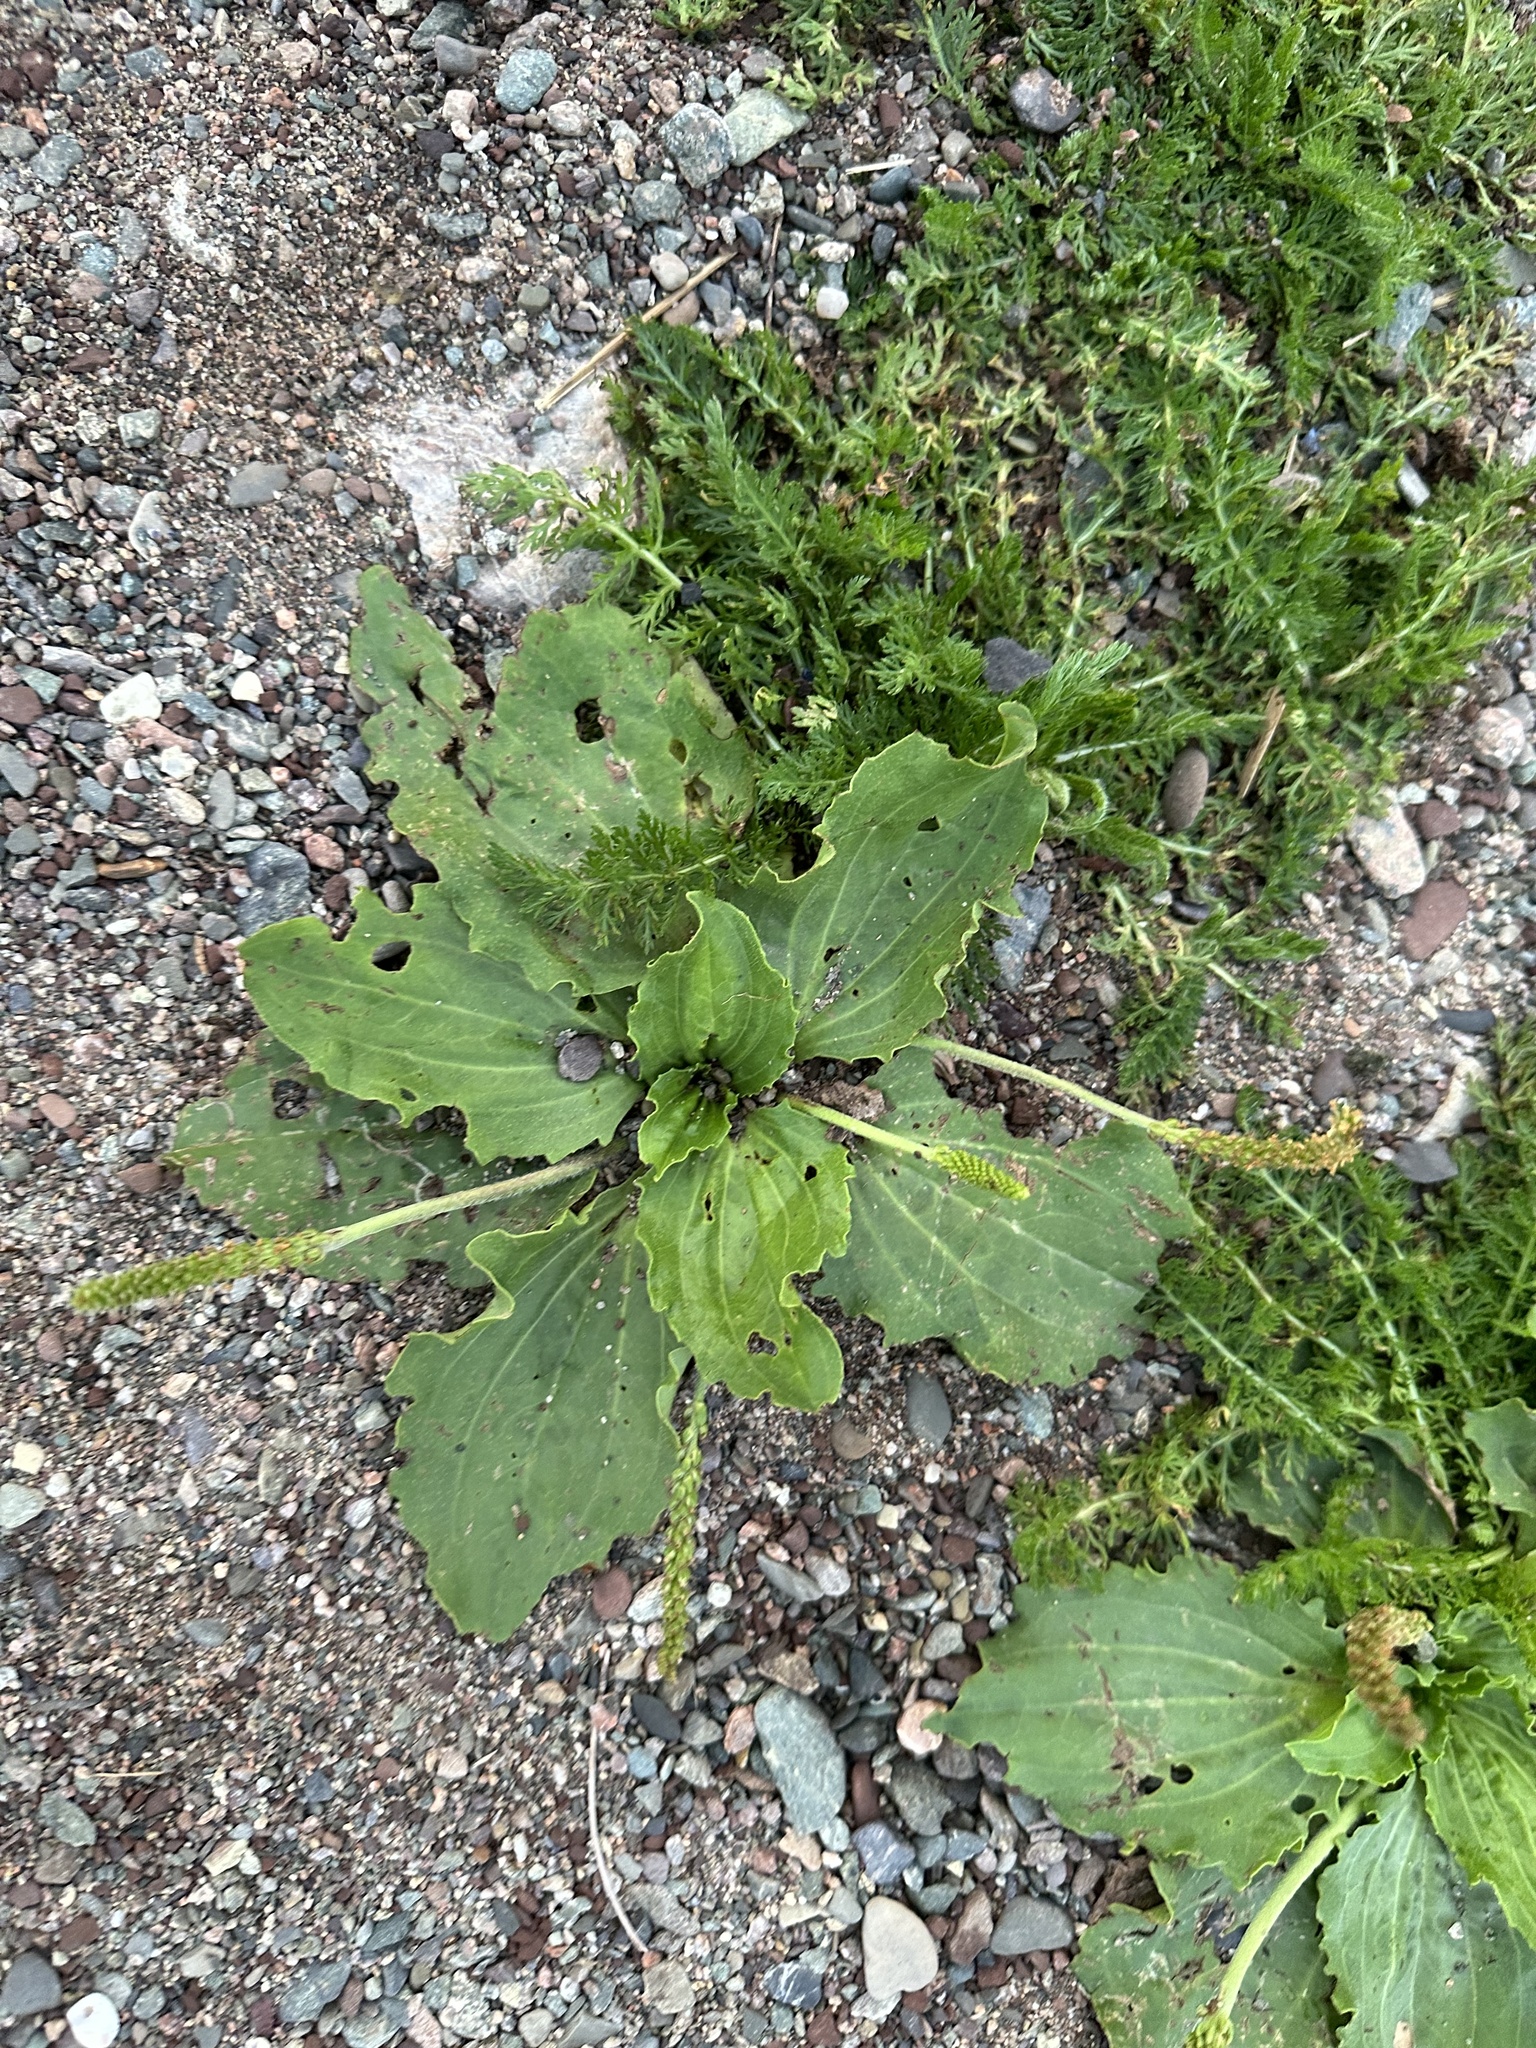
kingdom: Plantae
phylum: Tracheophyta
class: Magnoliopsida
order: Lamiales
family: Plantaginaceae
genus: Plantago
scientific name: Plantago major
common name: Common plantain
